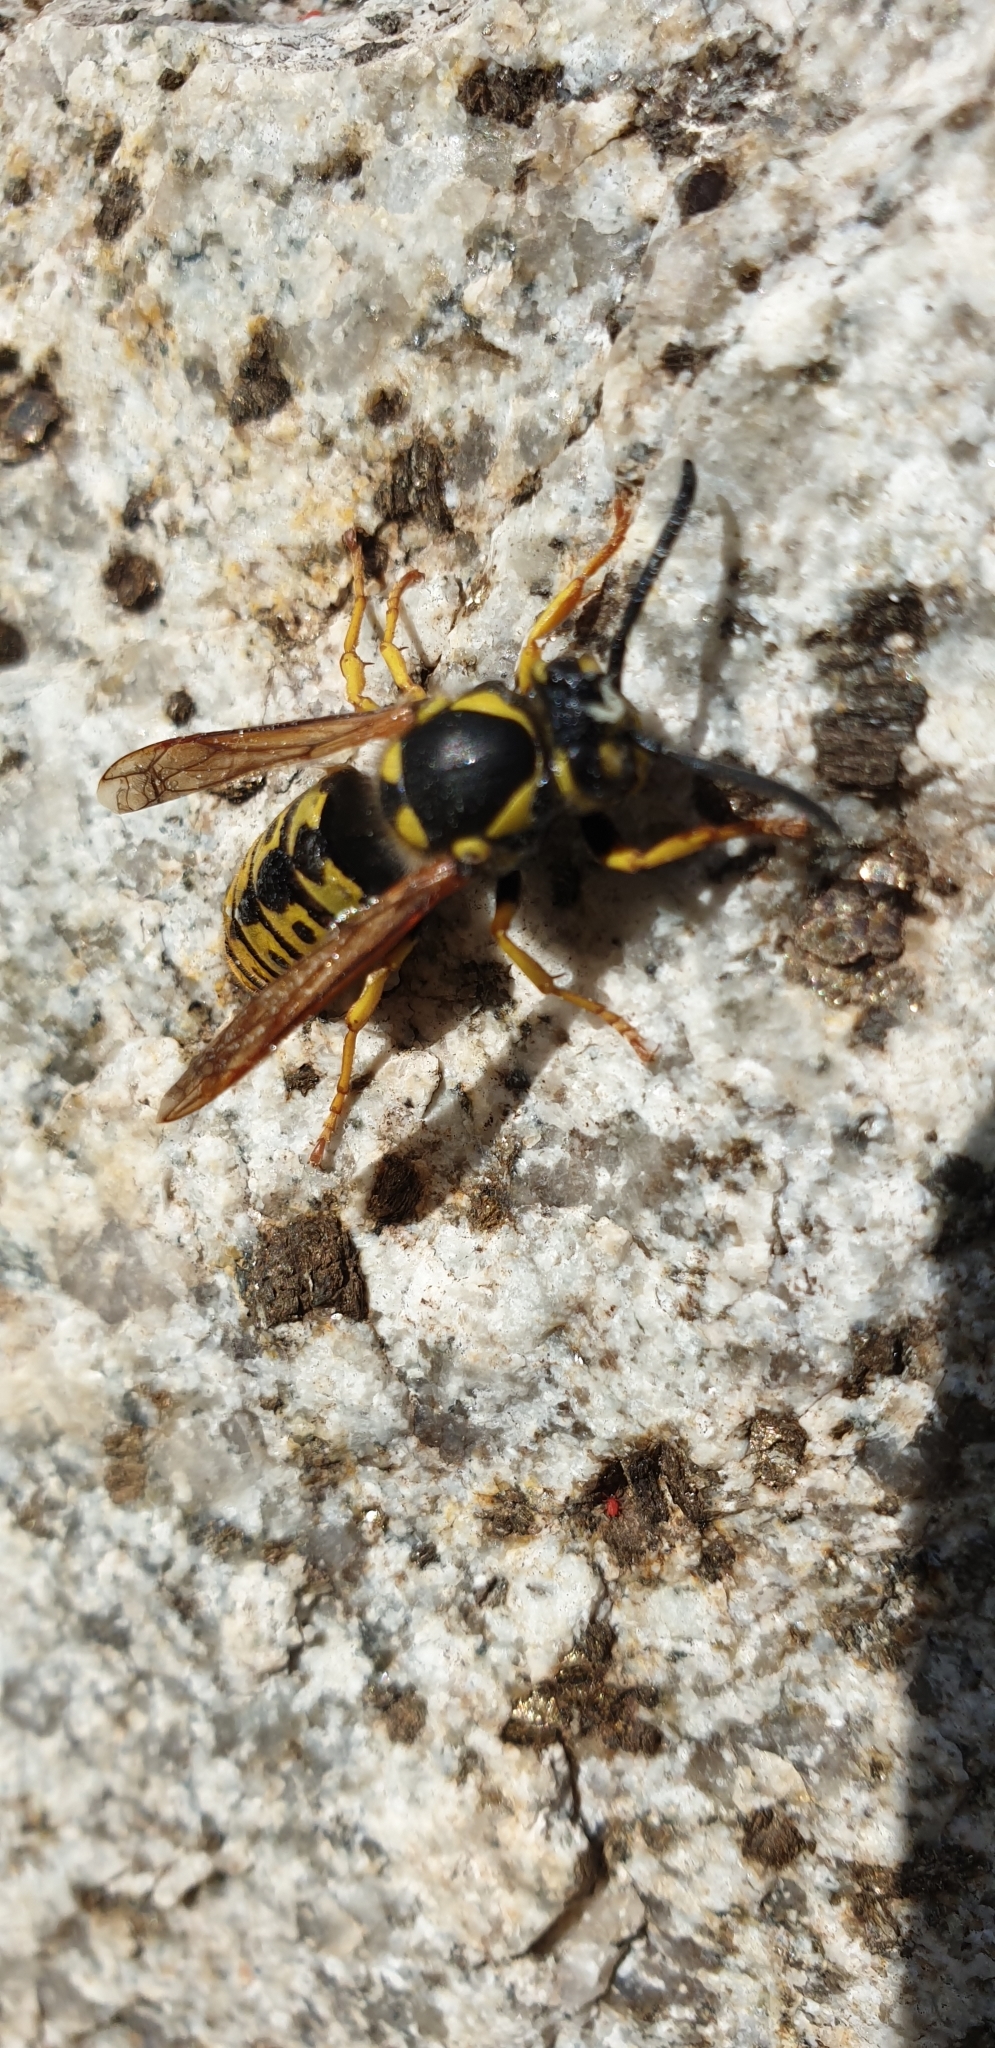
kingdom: Animalia
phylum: Arthropoda
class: Insecta
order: Hymenoptera
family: Vespidae
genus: Vespula
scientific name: Vespula germanica
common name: German wasp
